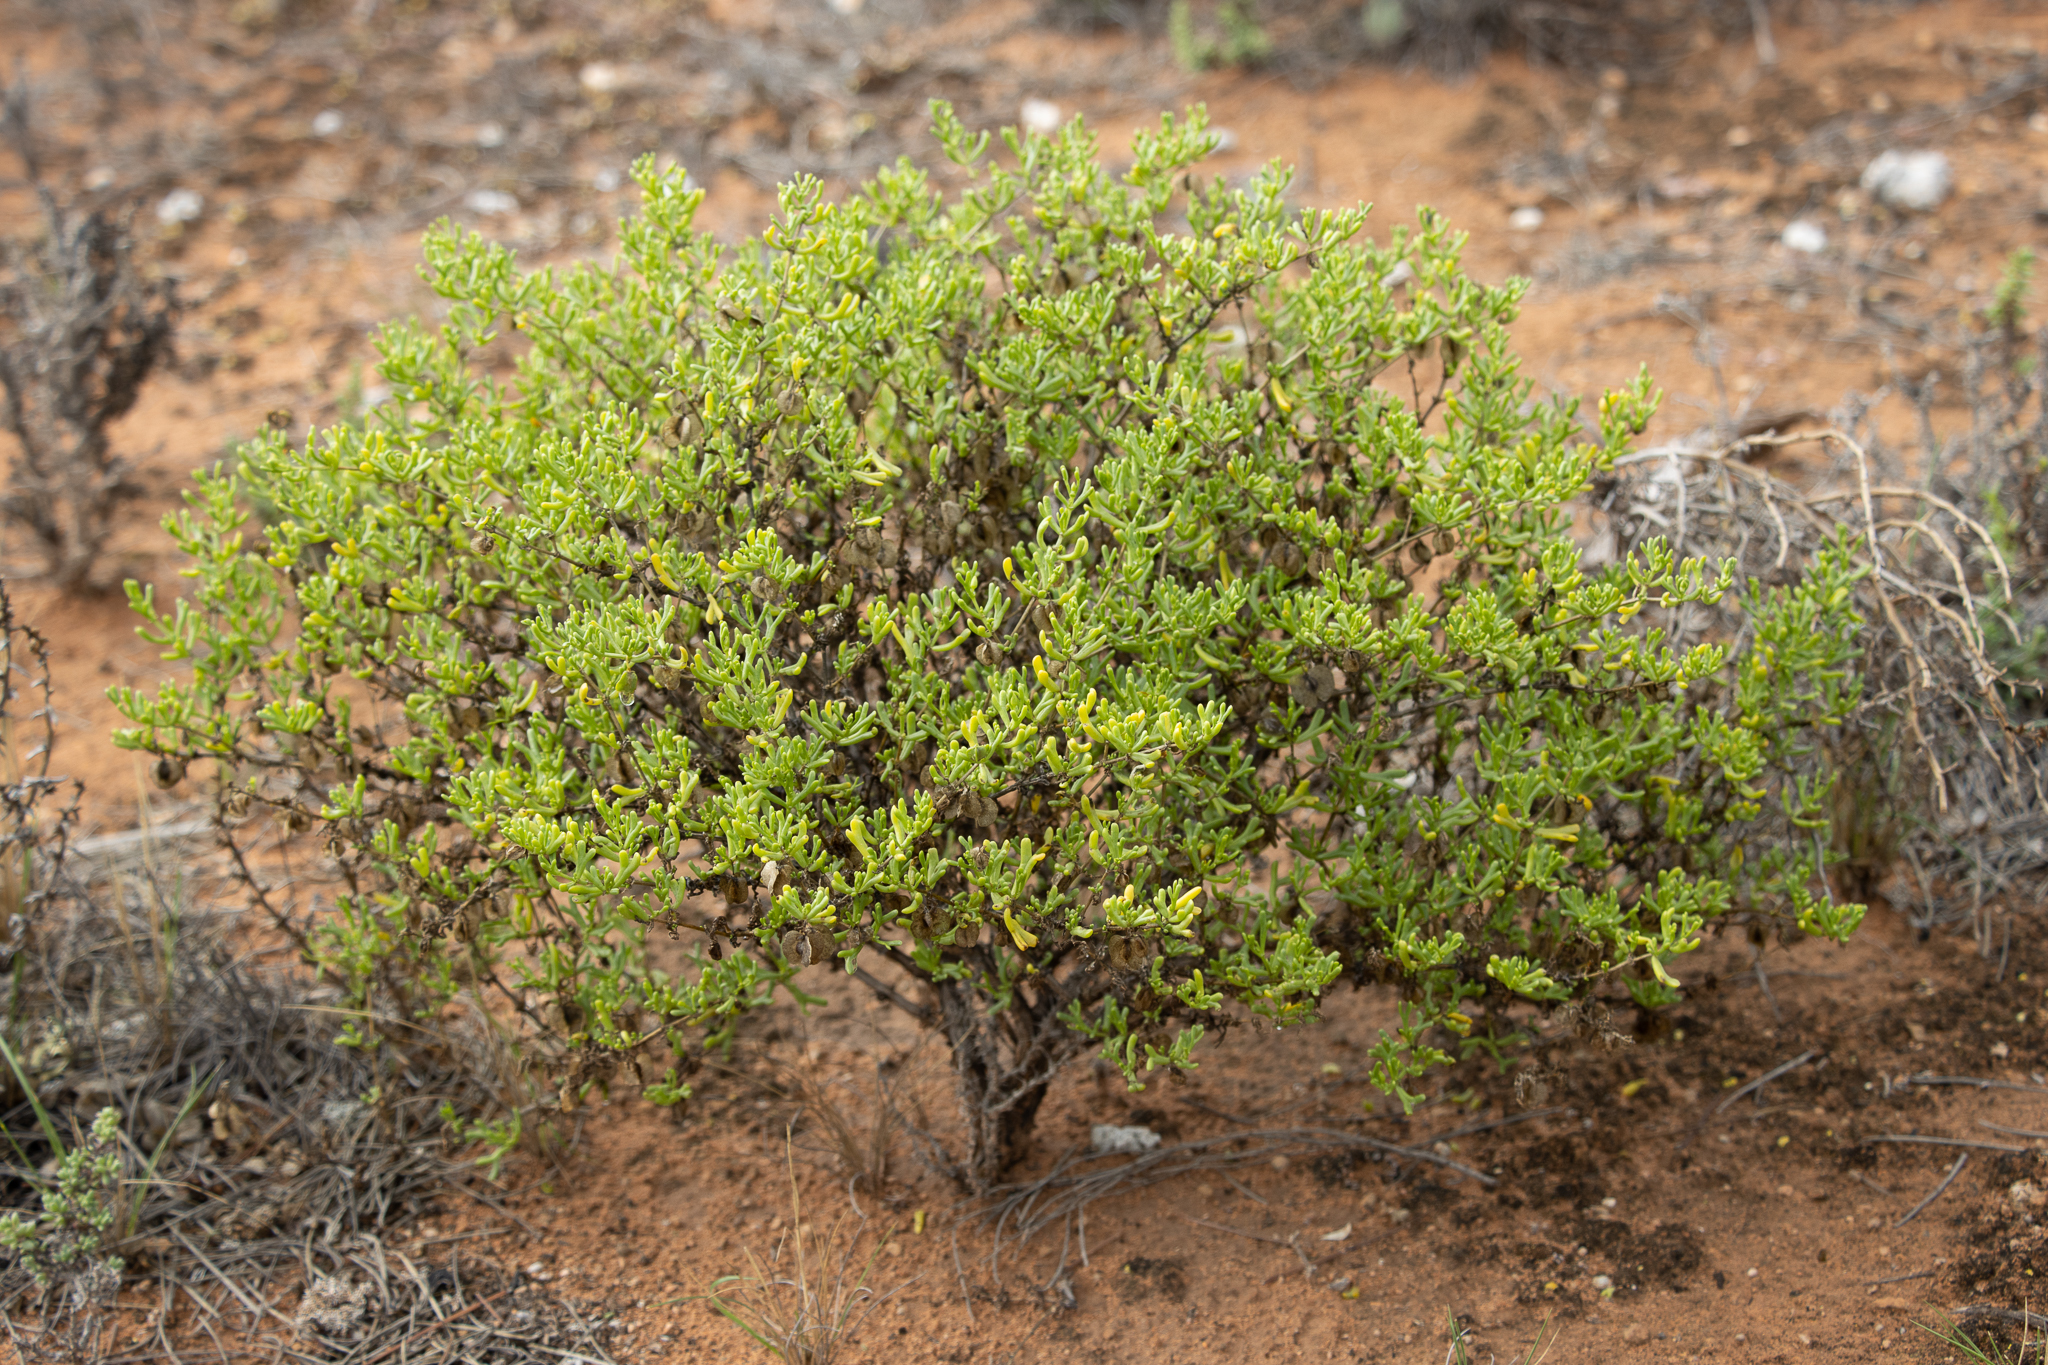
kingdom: Plantae
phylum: Tracheophyta
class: Magnoliopsida
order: Zygophyllales
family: Zygophyllaceae
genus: Roepera
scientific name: Roepera aurantiaca
